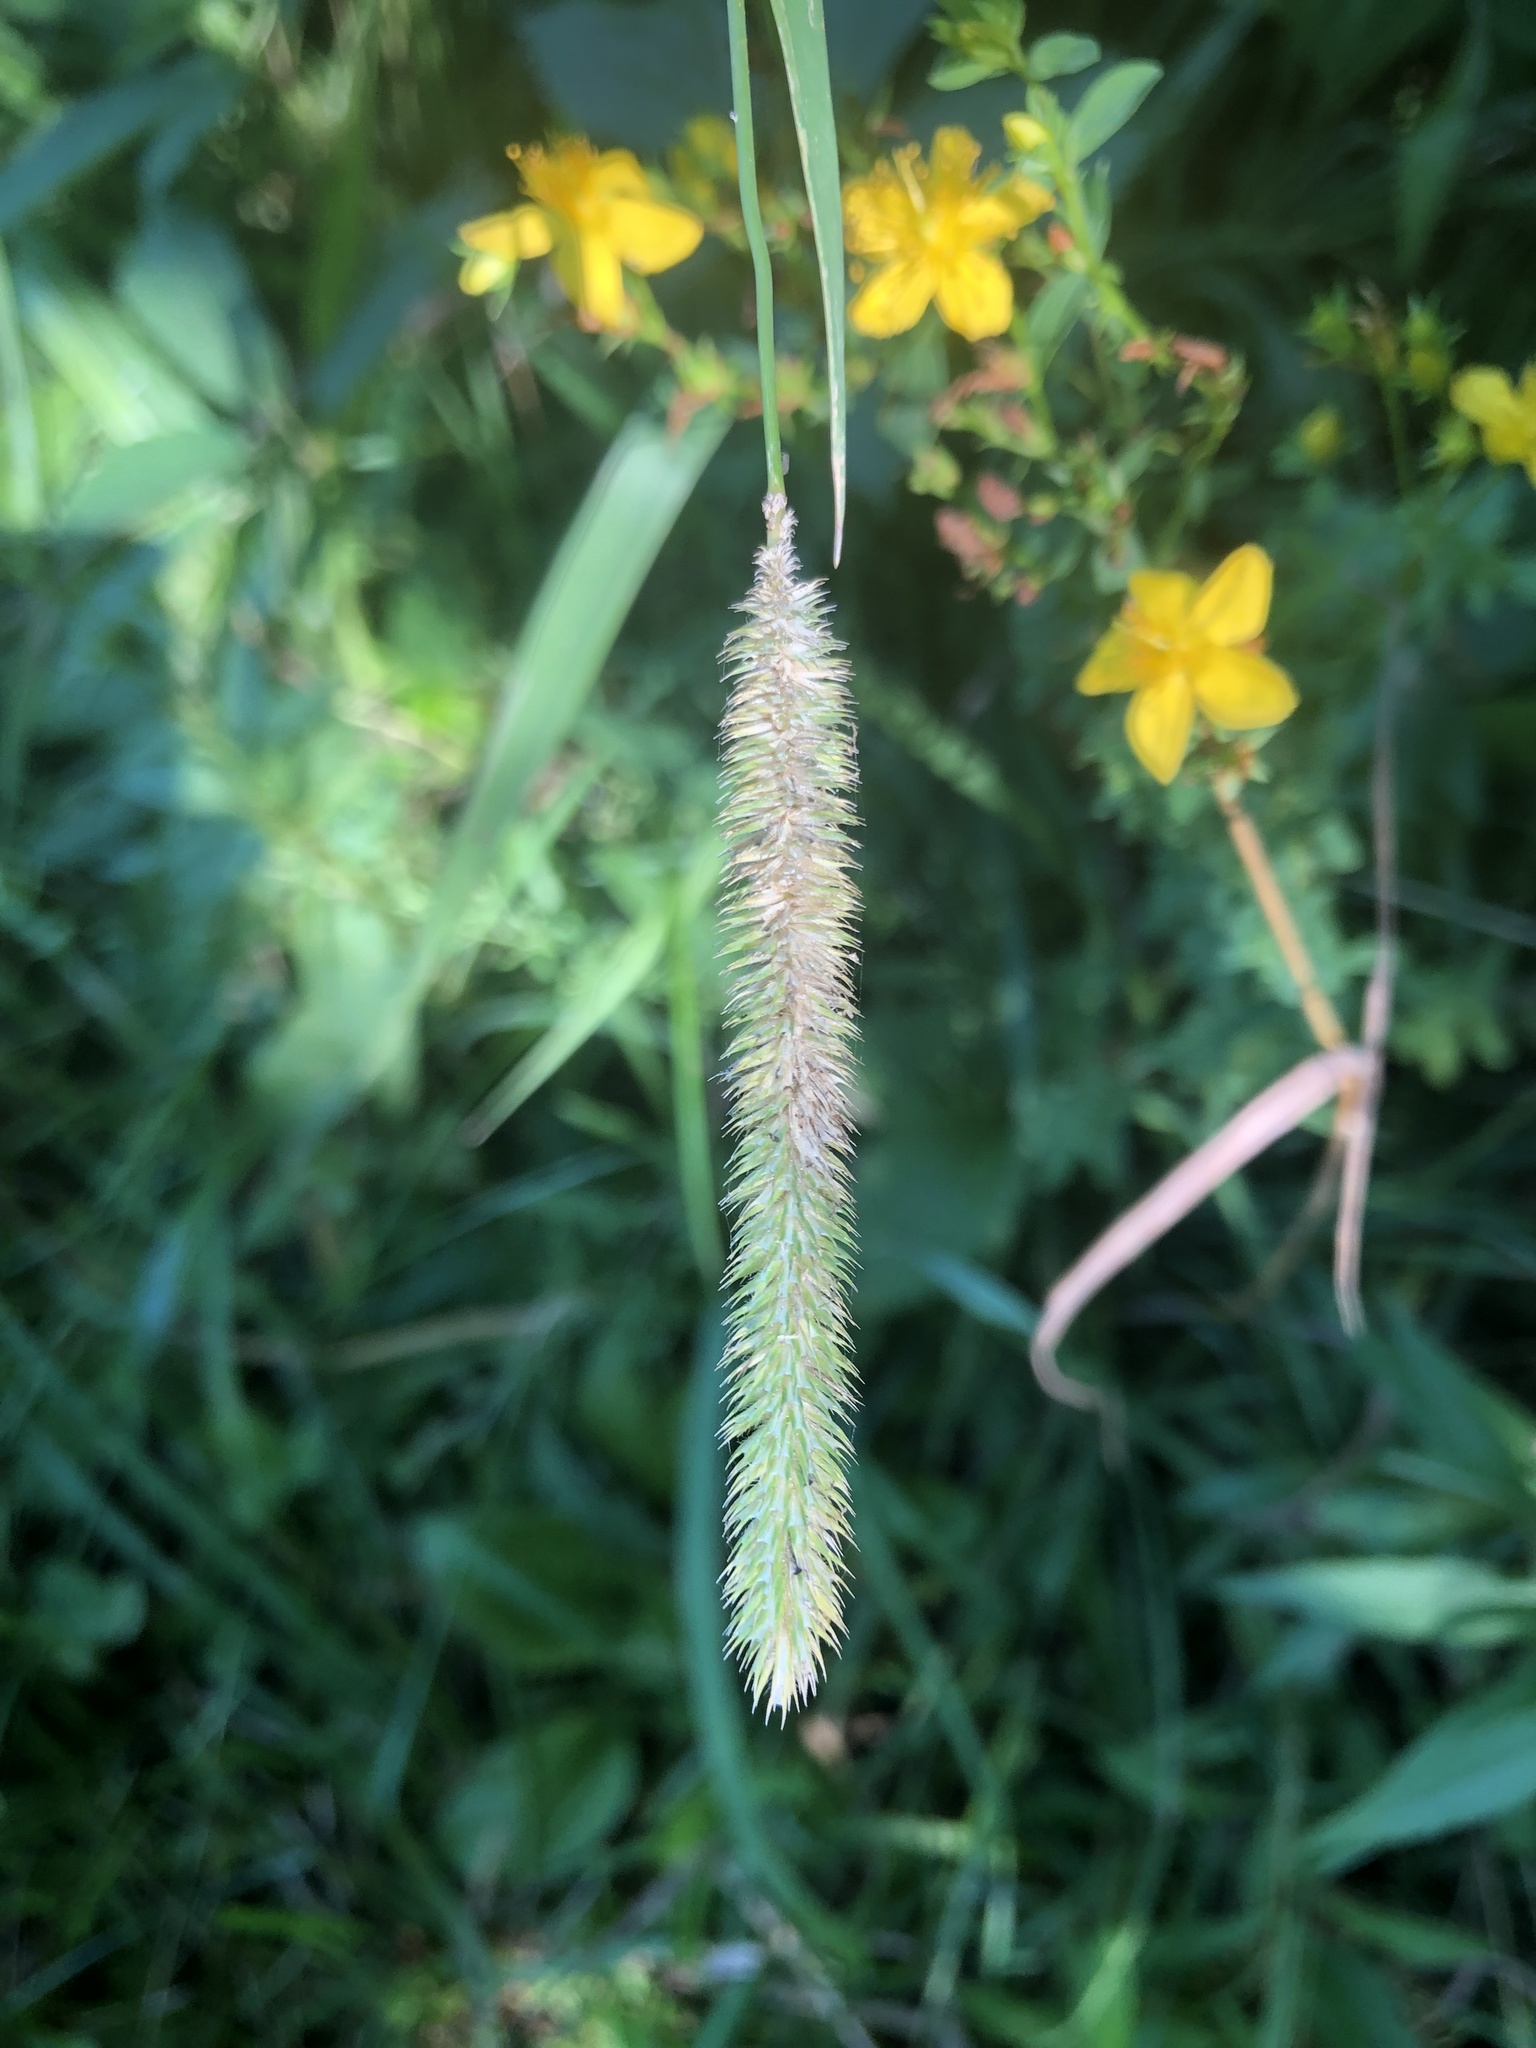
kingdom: Plantae
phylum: Tracheophyta
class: Liliopsida
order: Poales
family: Poaceae
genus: Phleum
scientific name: Phleum pratense
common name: Timothy grass
